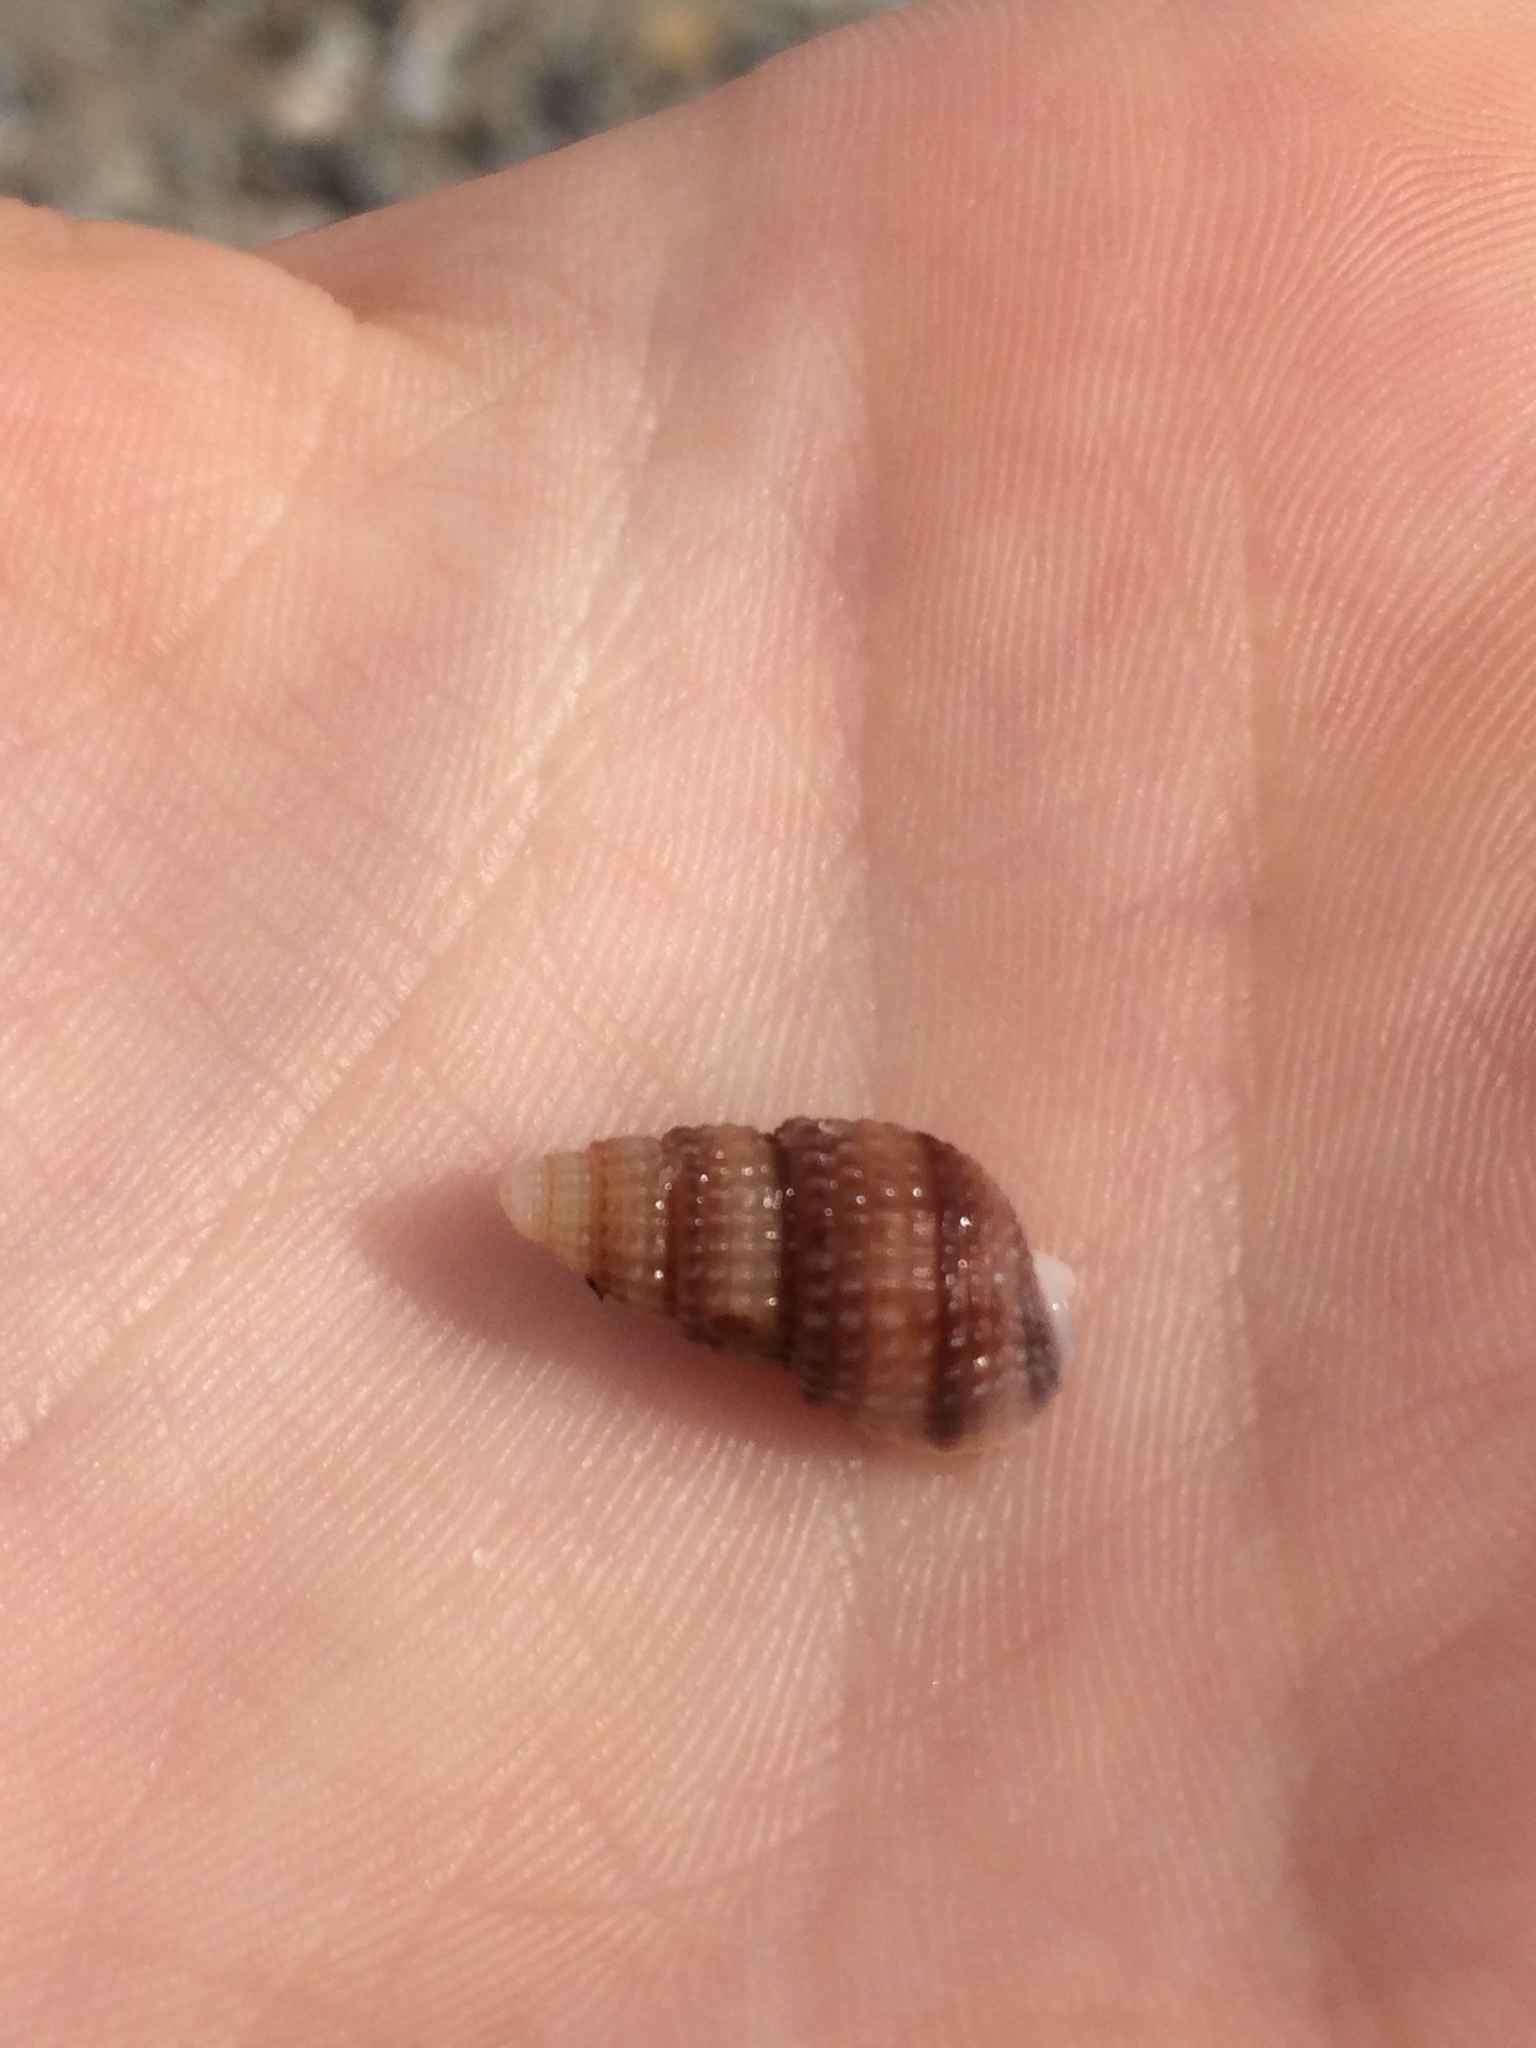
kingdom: Animalia
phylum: Mollusca
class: Gastropoda
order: Neogastropoda
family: Nassariidae
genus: Ilyanassa
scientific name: Ilyanassa trivittata
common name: Three-line mudsnail
